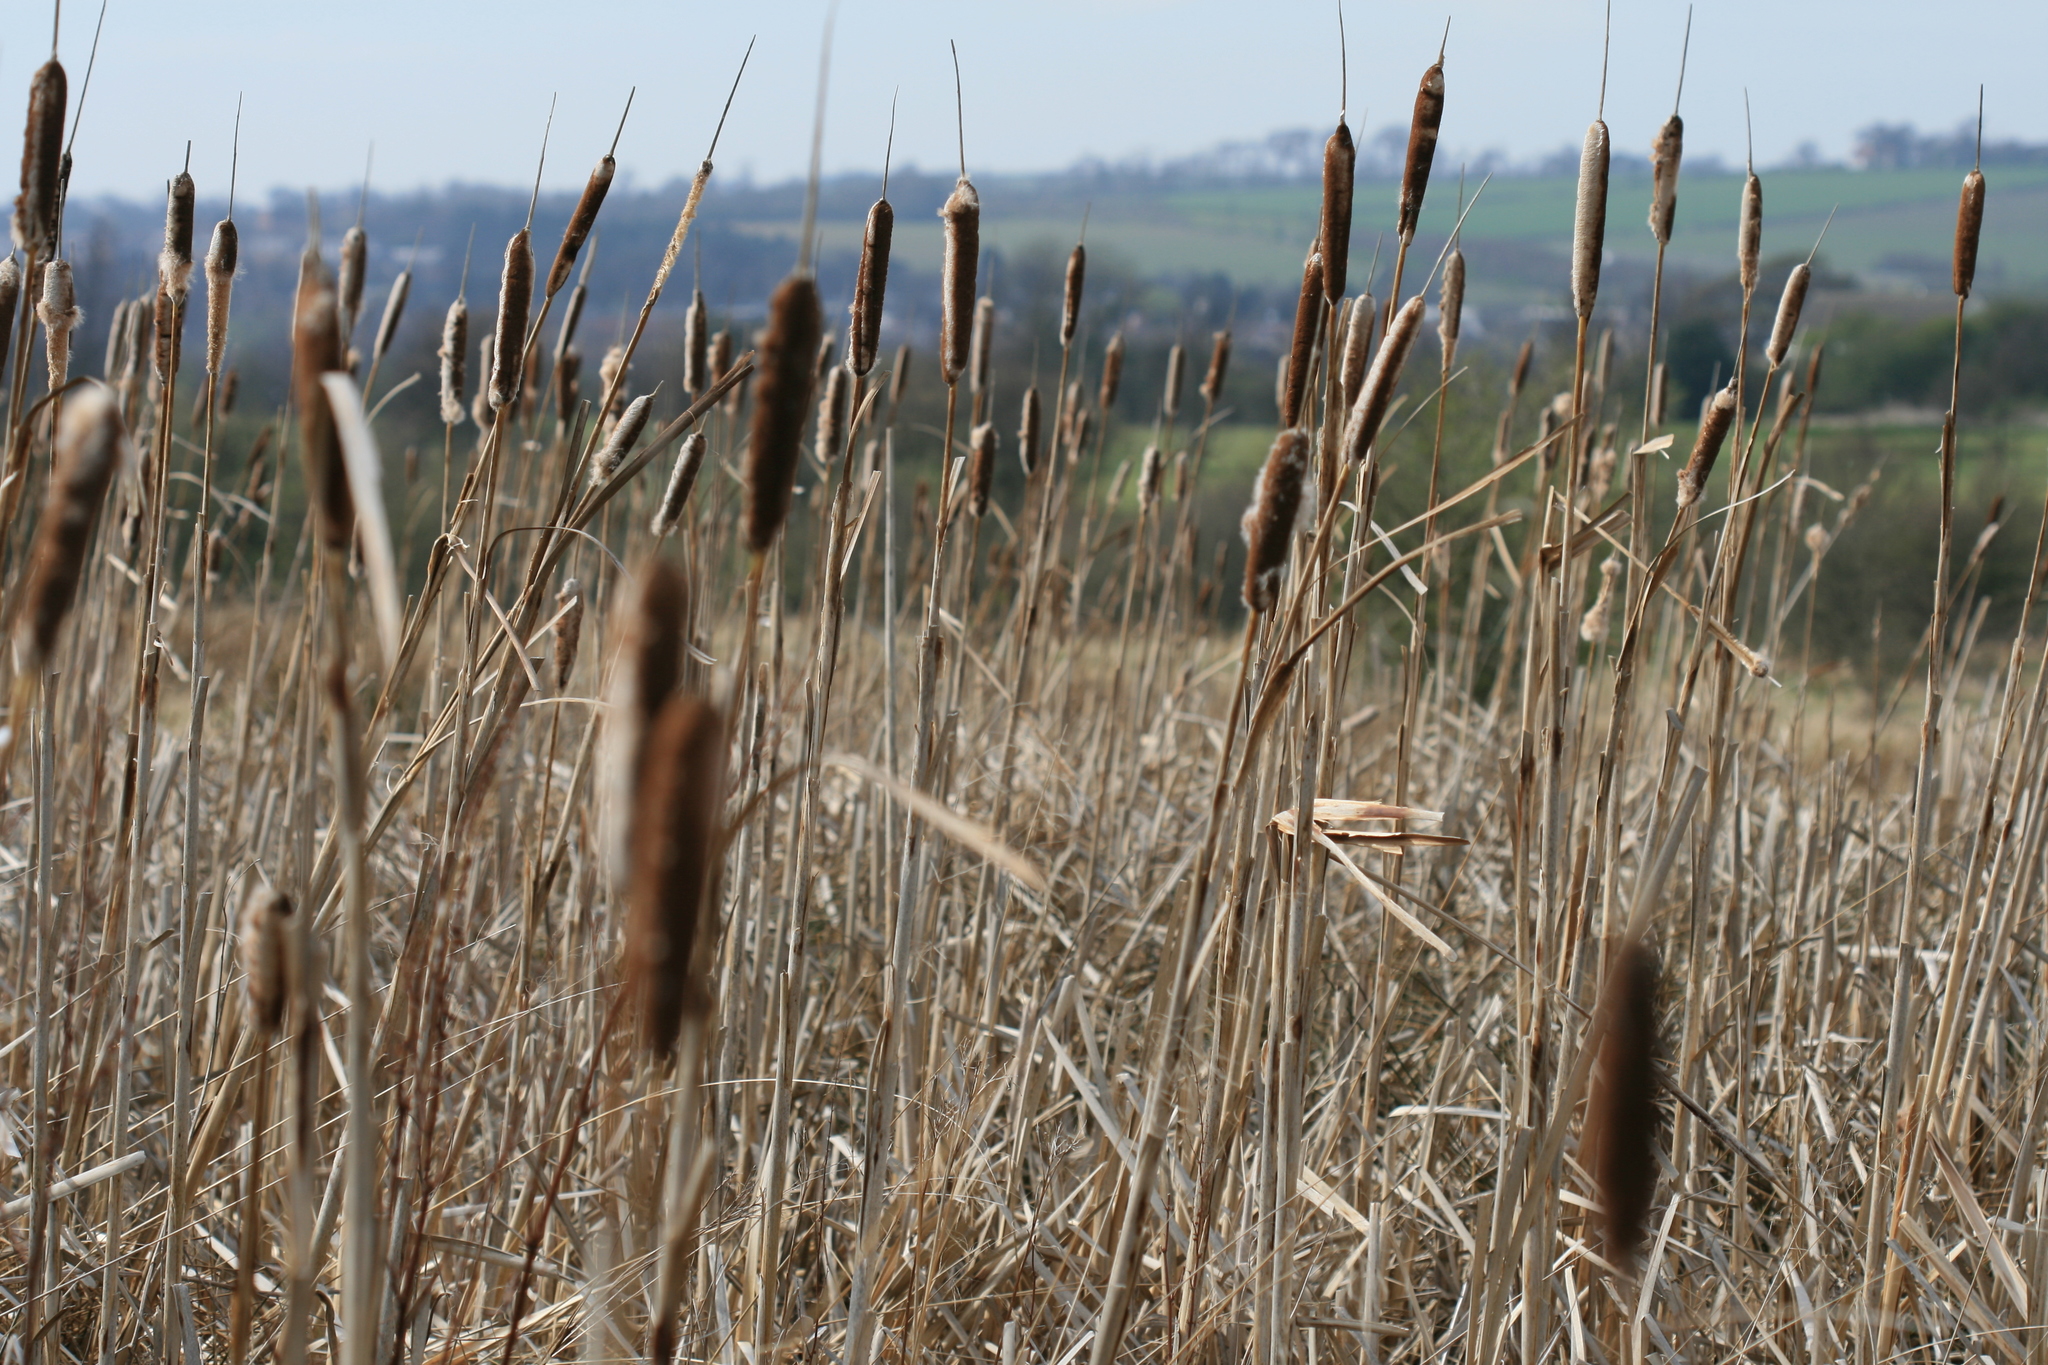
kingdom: Plantae
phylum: Tracheophyta
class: Liliopsida
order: Poales
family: Typhaceae
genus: Typha
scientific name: Typha latifolia
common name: Broadleaf cattail
